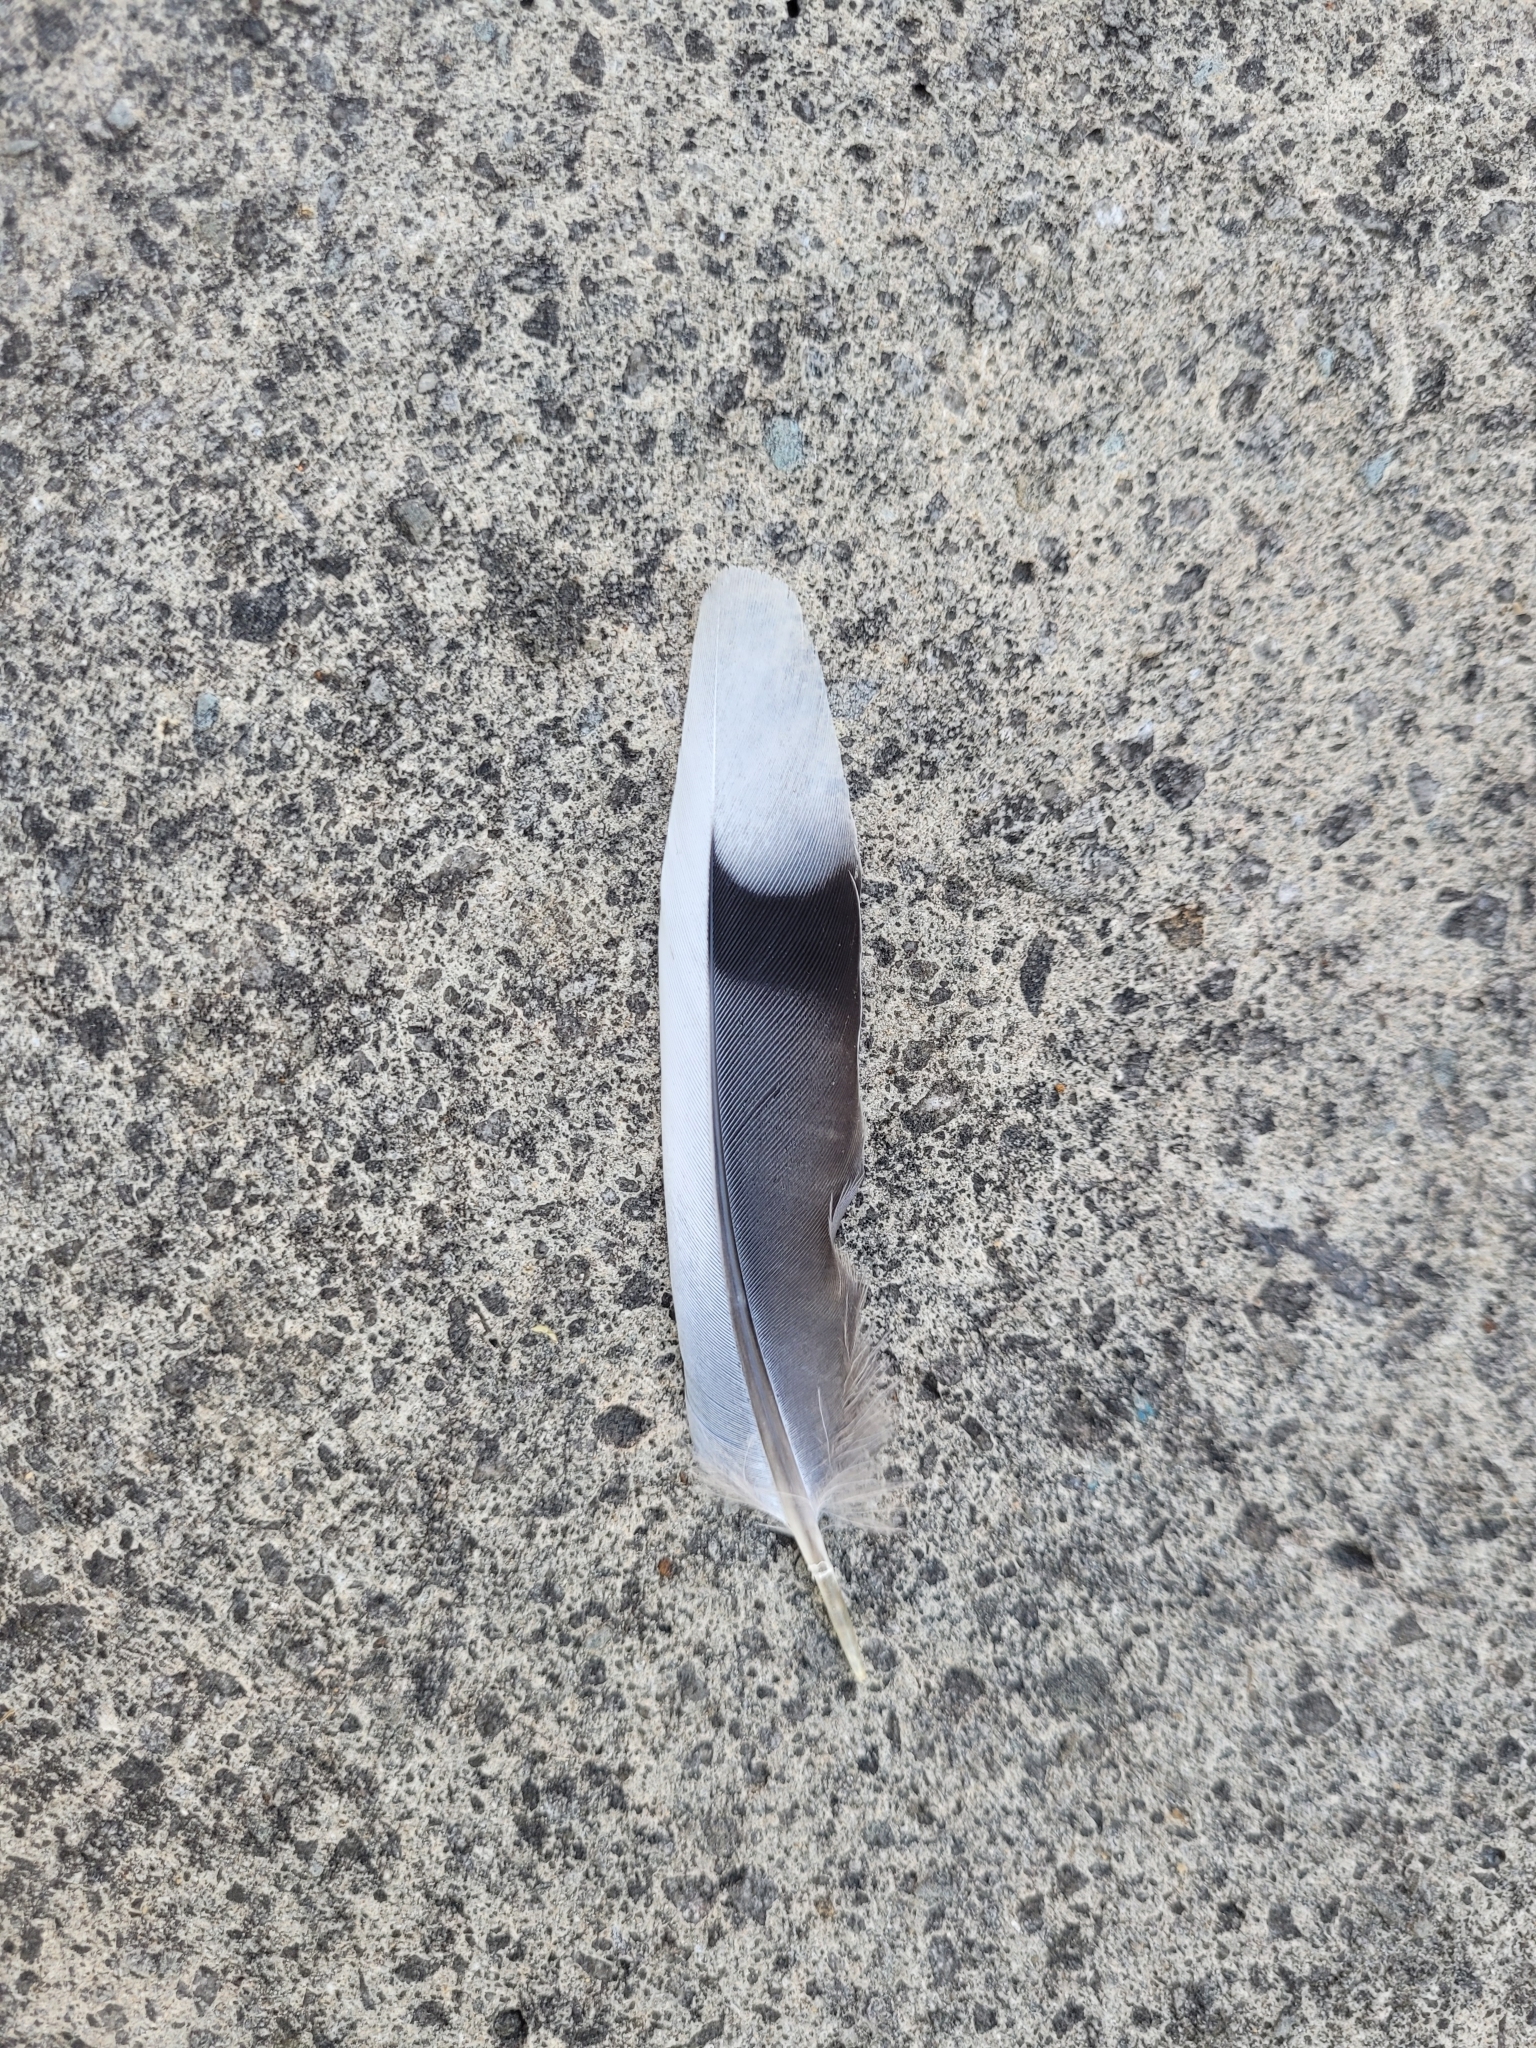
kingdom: Animalia
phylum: Chordata
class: Aves
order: Columbiformes
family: Columbidae
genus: Zenaida
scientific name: Zenaida macroura
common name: Mourning dove
